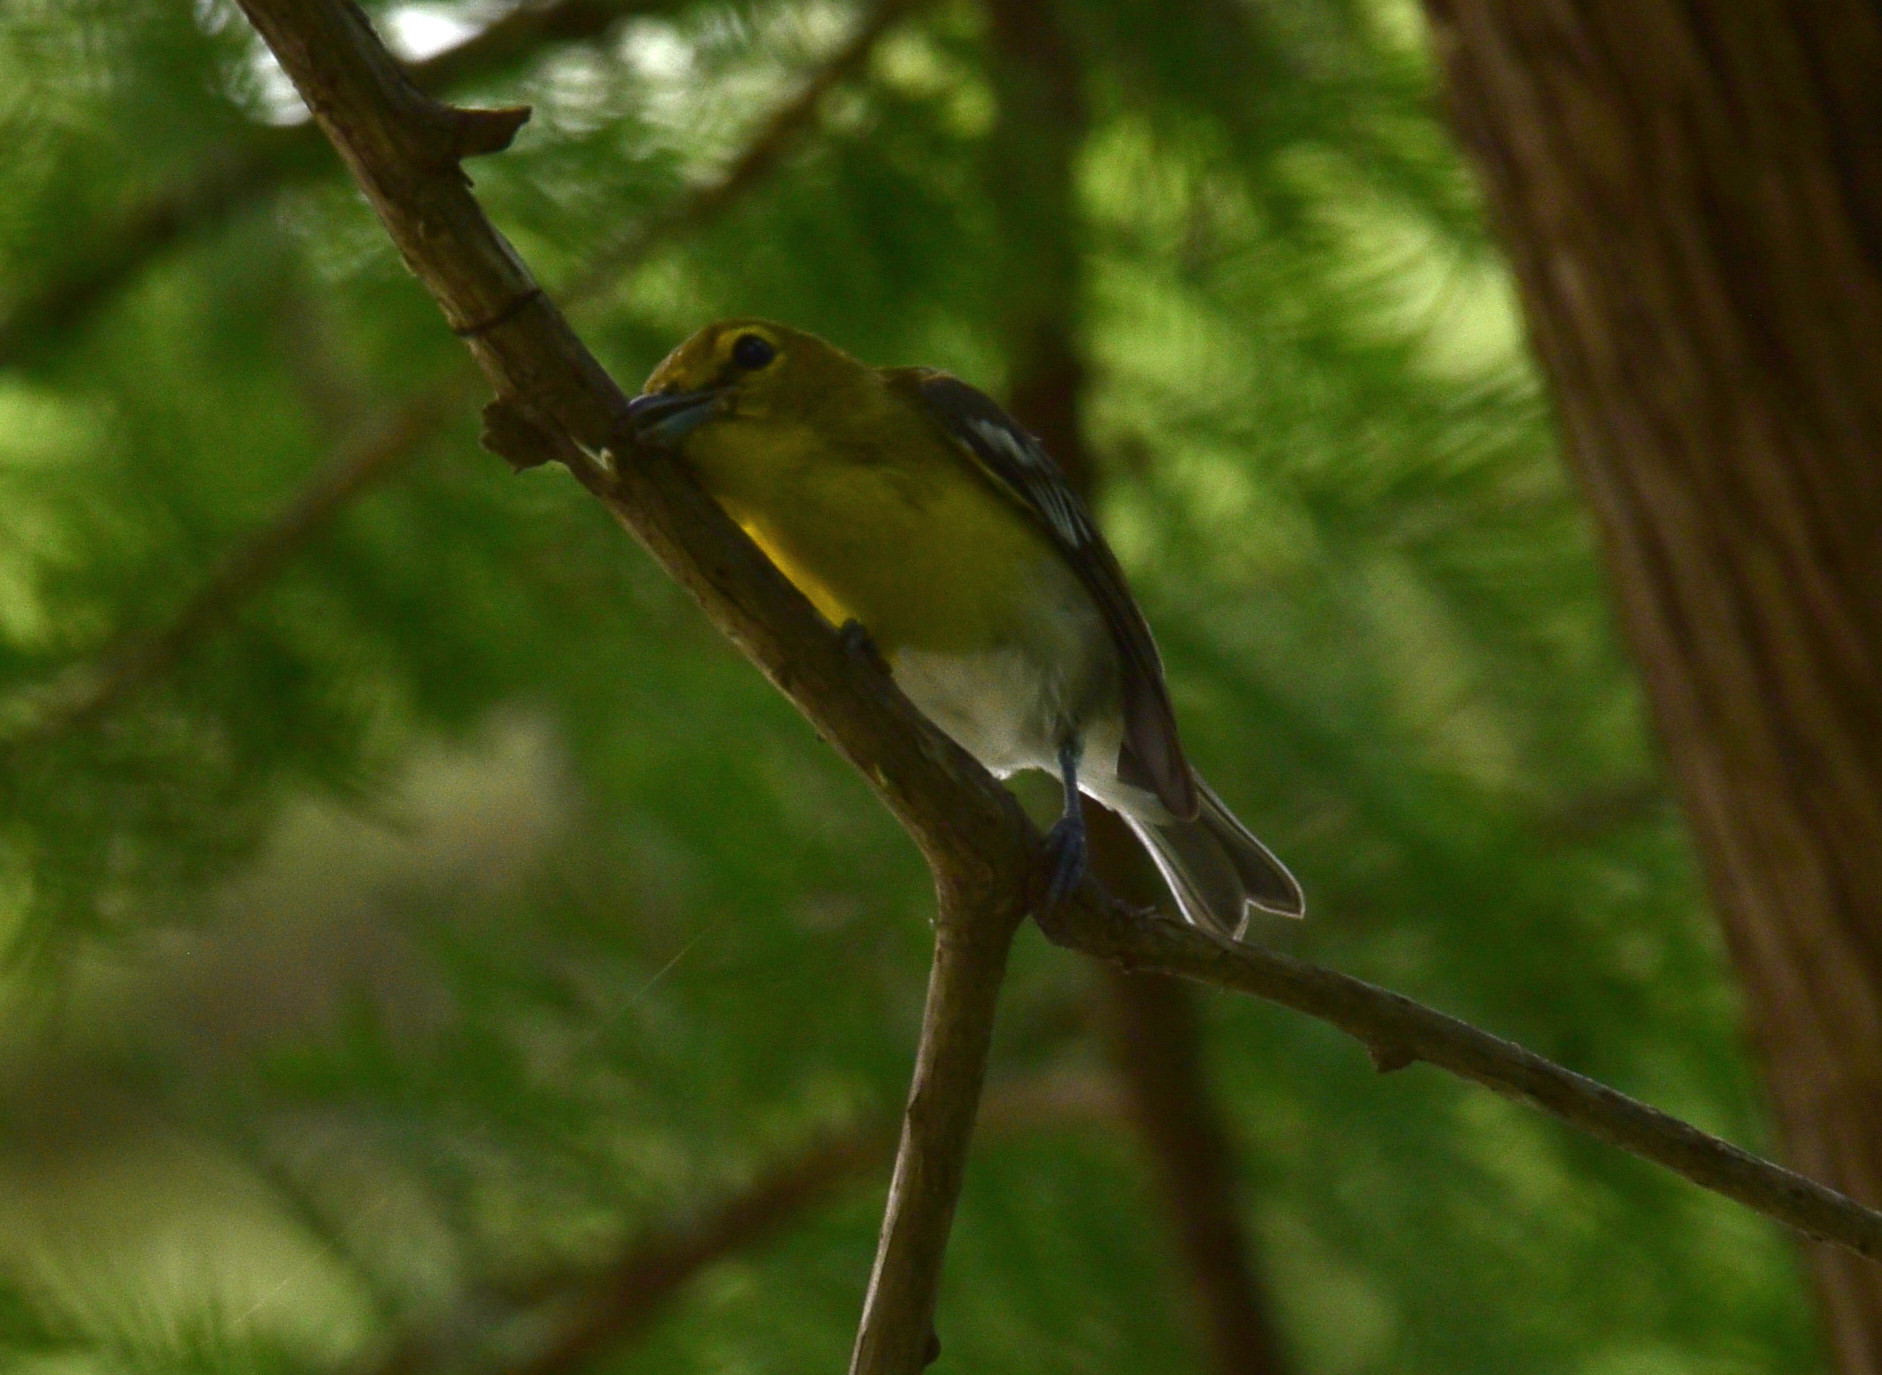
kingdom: Animalia
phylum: Chordata
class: Aves
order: Passeriformes
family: Vireonidae
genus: Vireo
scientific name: Vireo flavifrons
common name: Yellow-throated vireo
